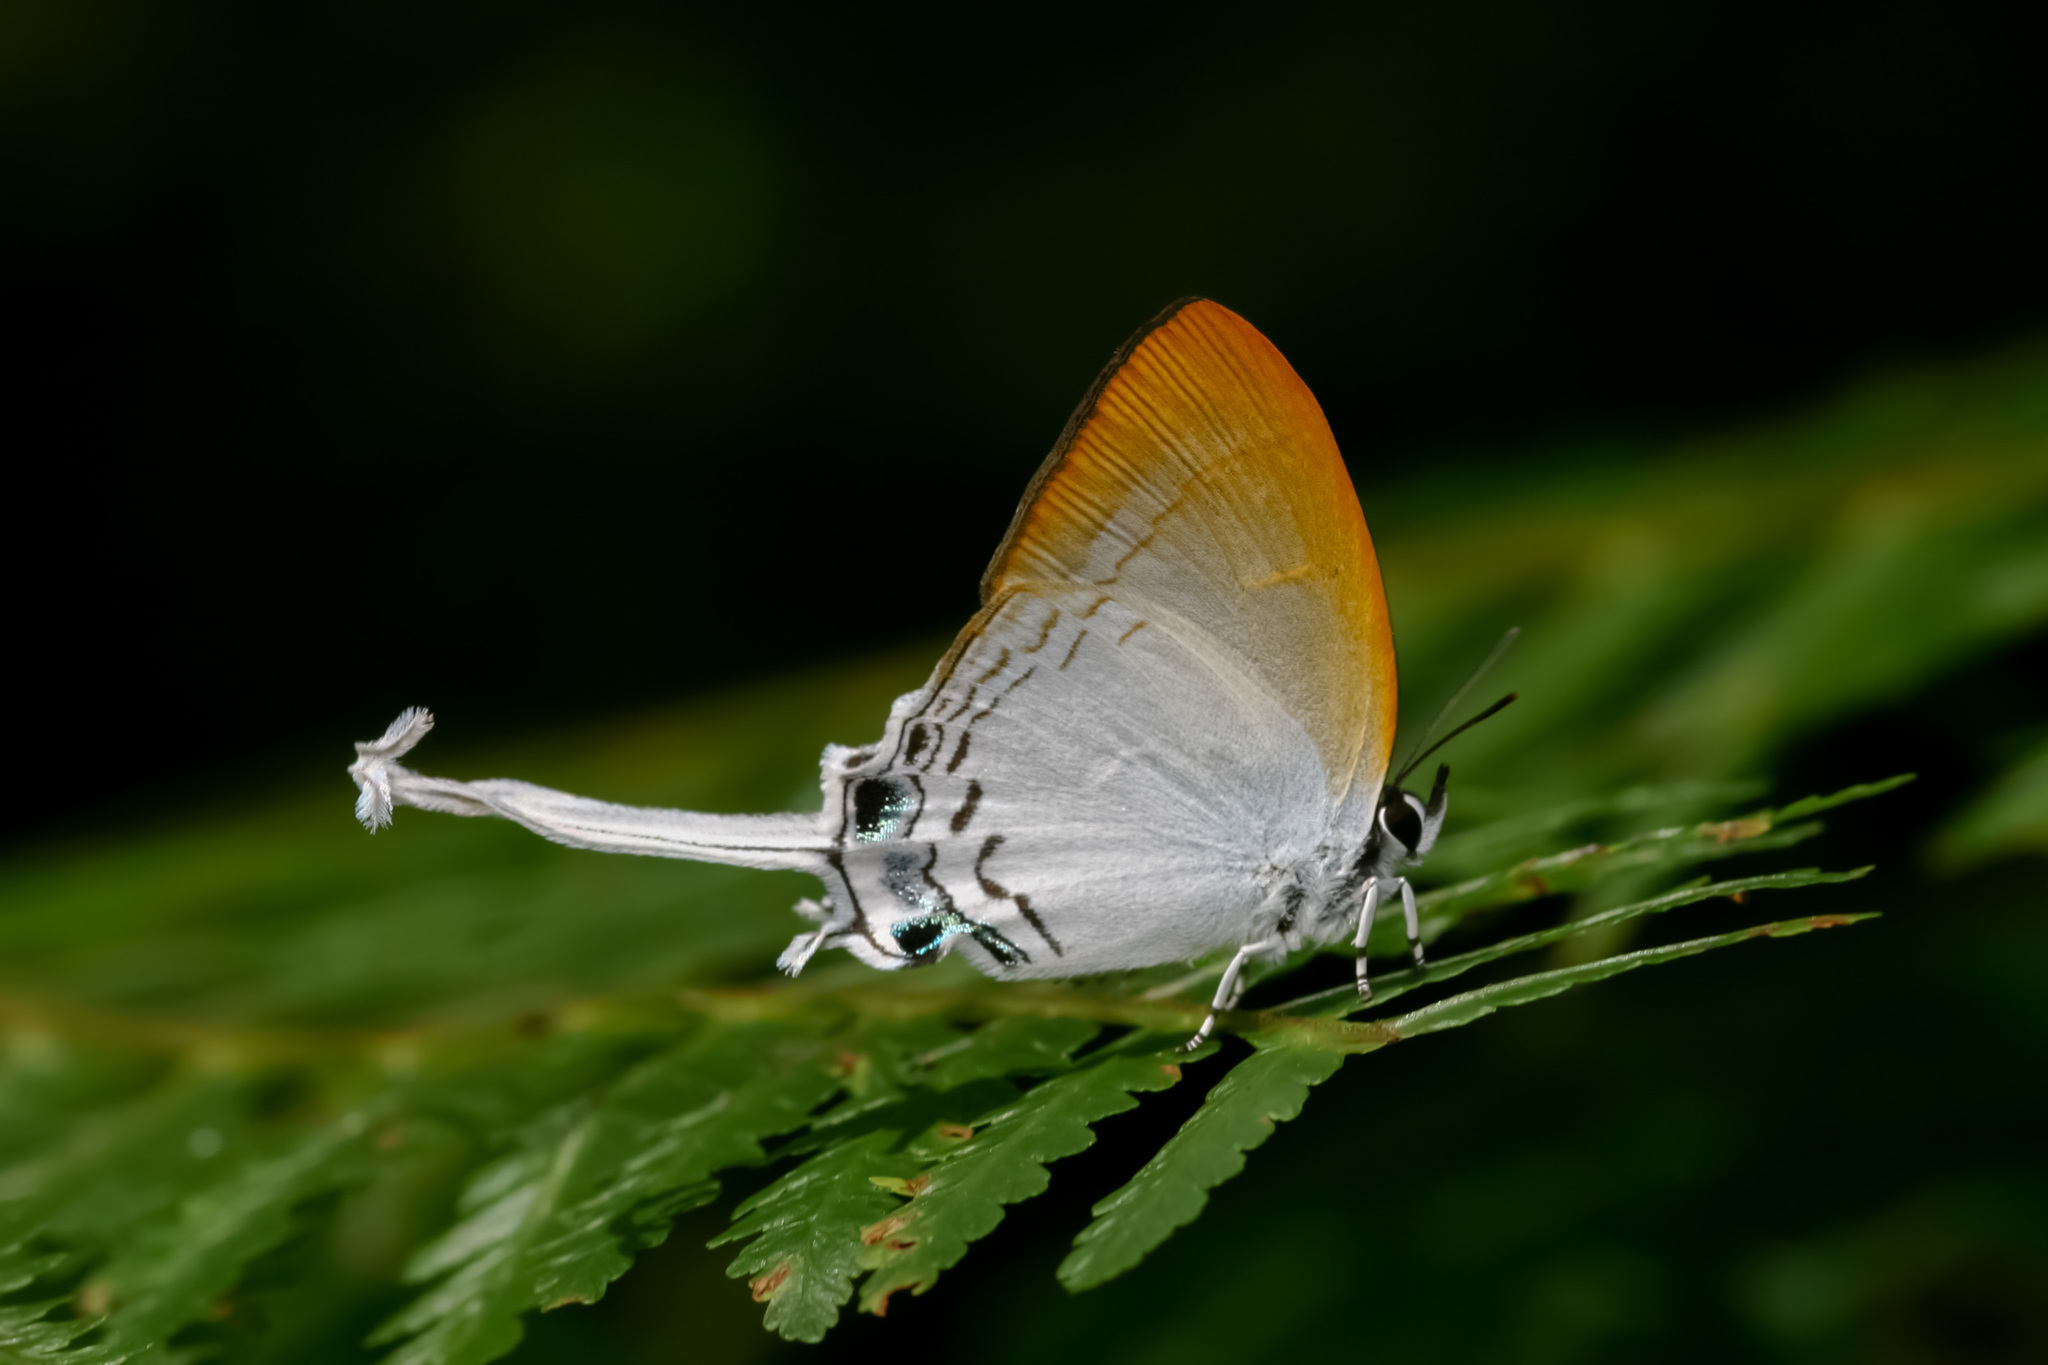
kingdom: Animalia
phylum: Arthropoda
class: Insecta
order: Lepidoptera
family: Lycaenidae
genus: Cheritra
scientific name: Cheritra freja
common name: Common imperial
